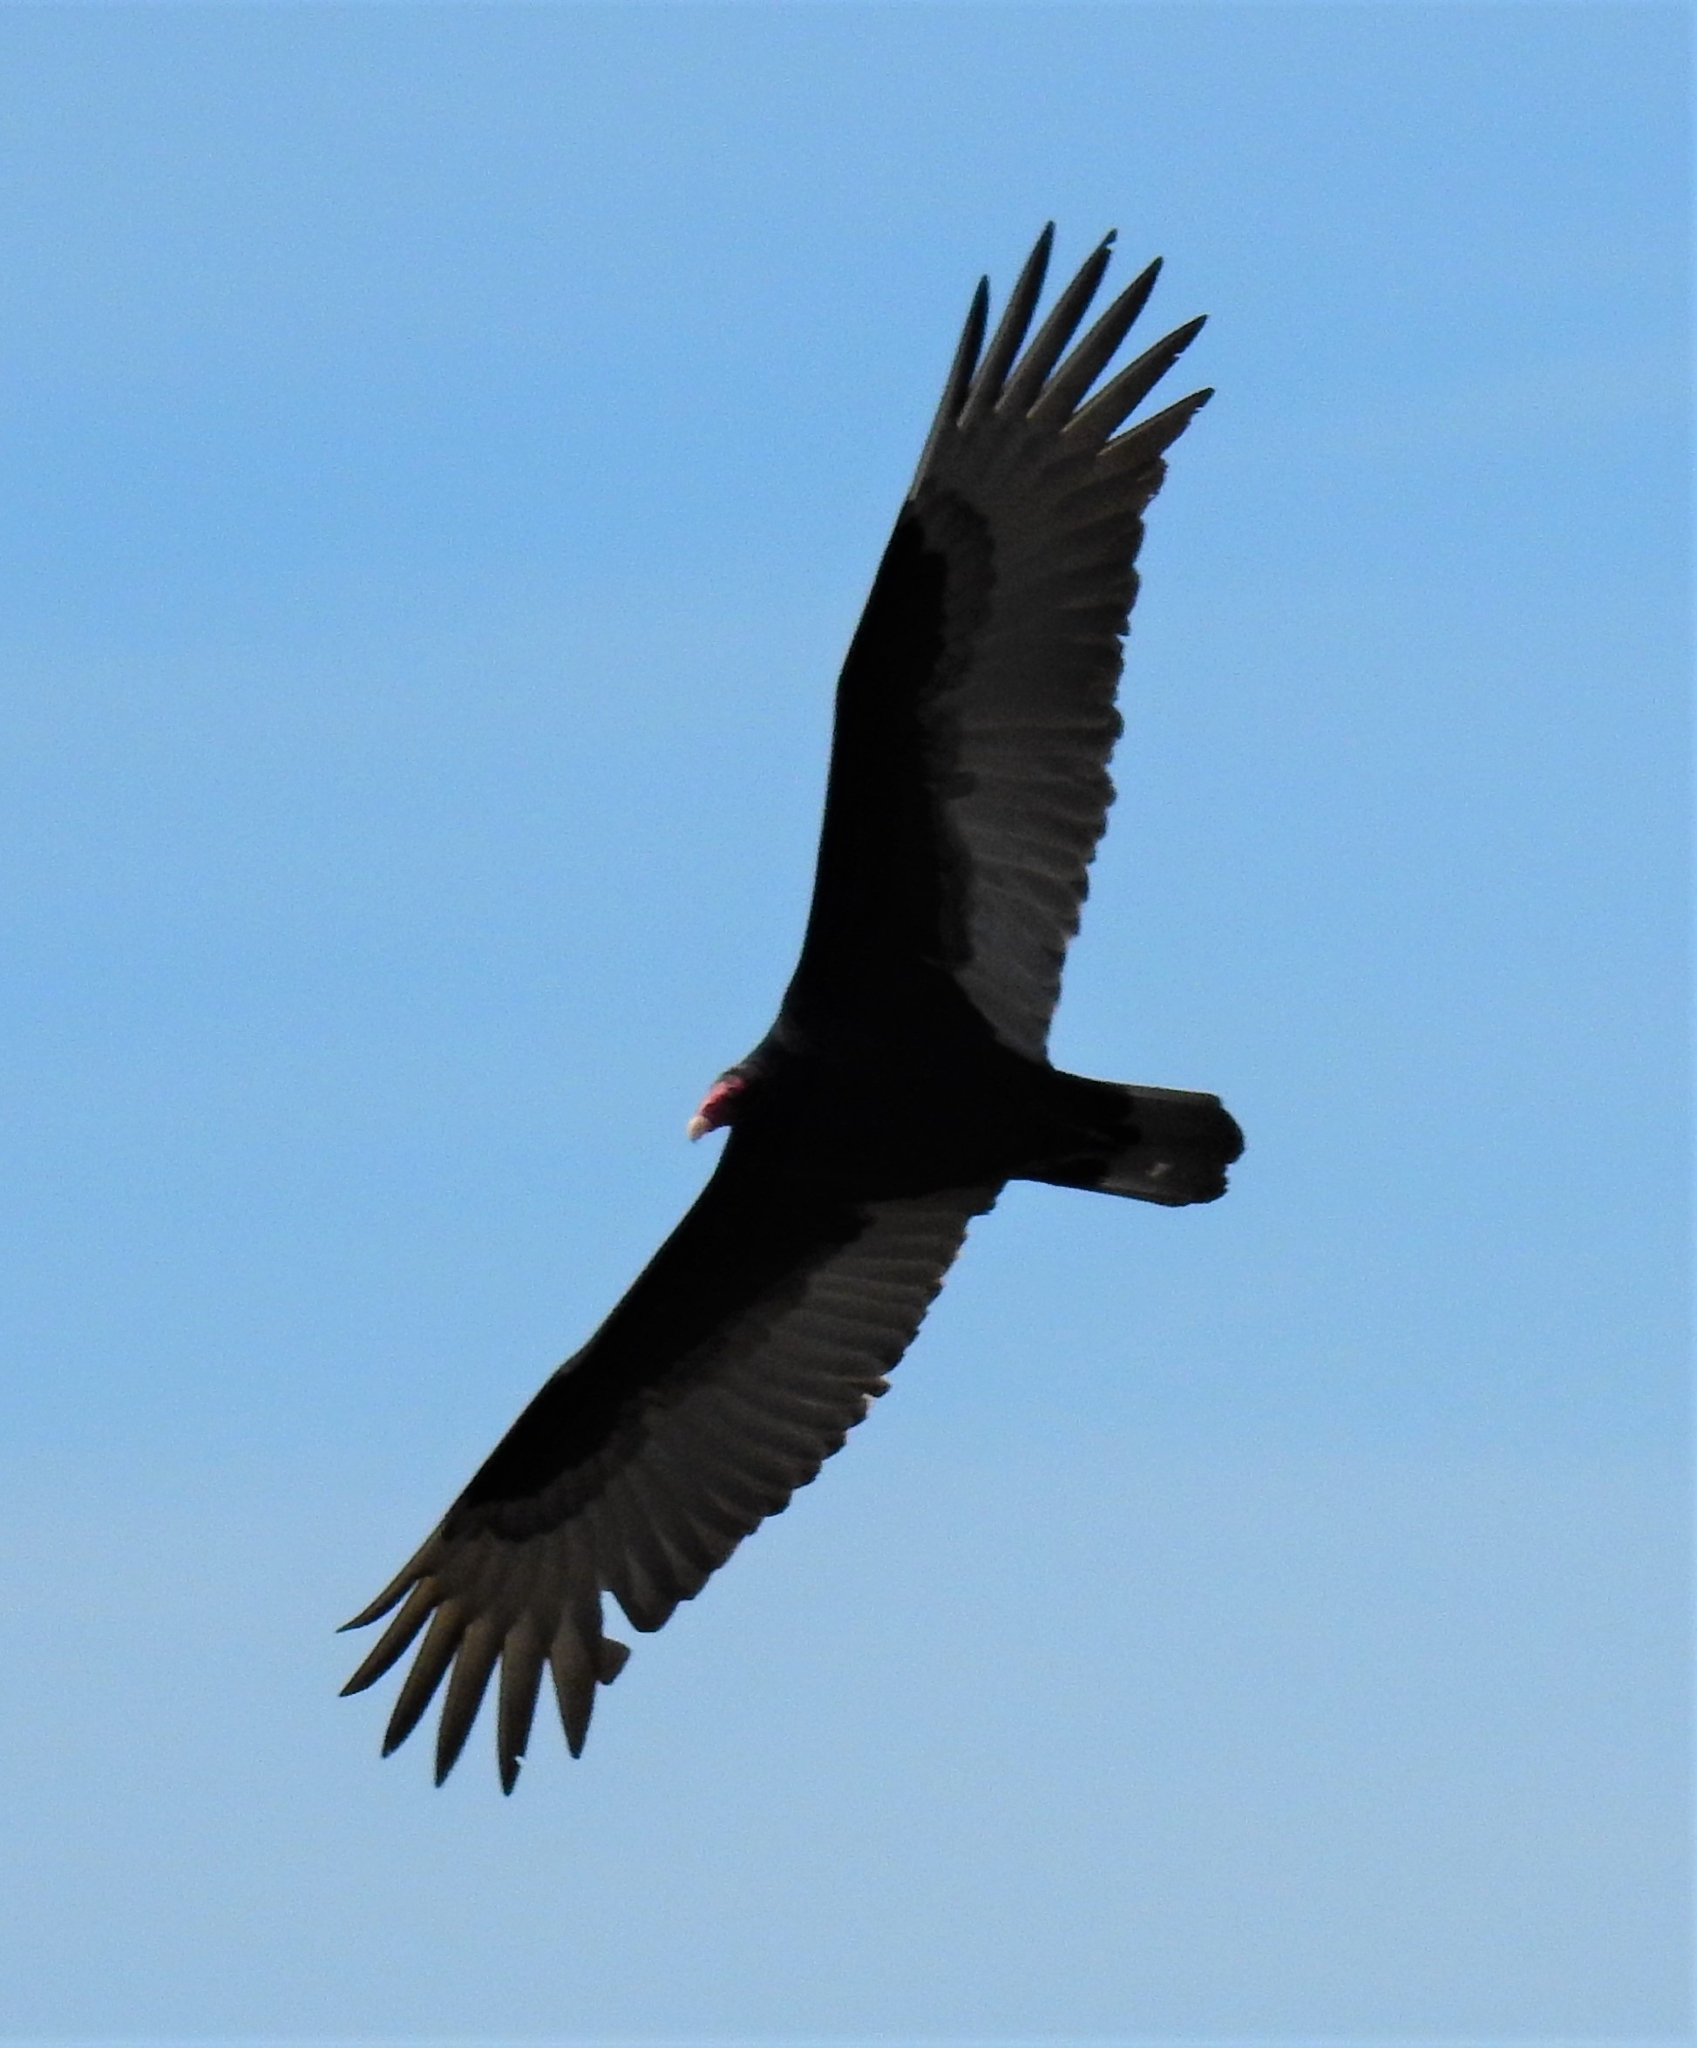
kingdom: Animalia
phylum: Chordata
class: Aves
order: Accipitriformes
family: Cathartidae
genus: Cathartes
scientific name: Cathartes aura
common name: Turkey vulture
